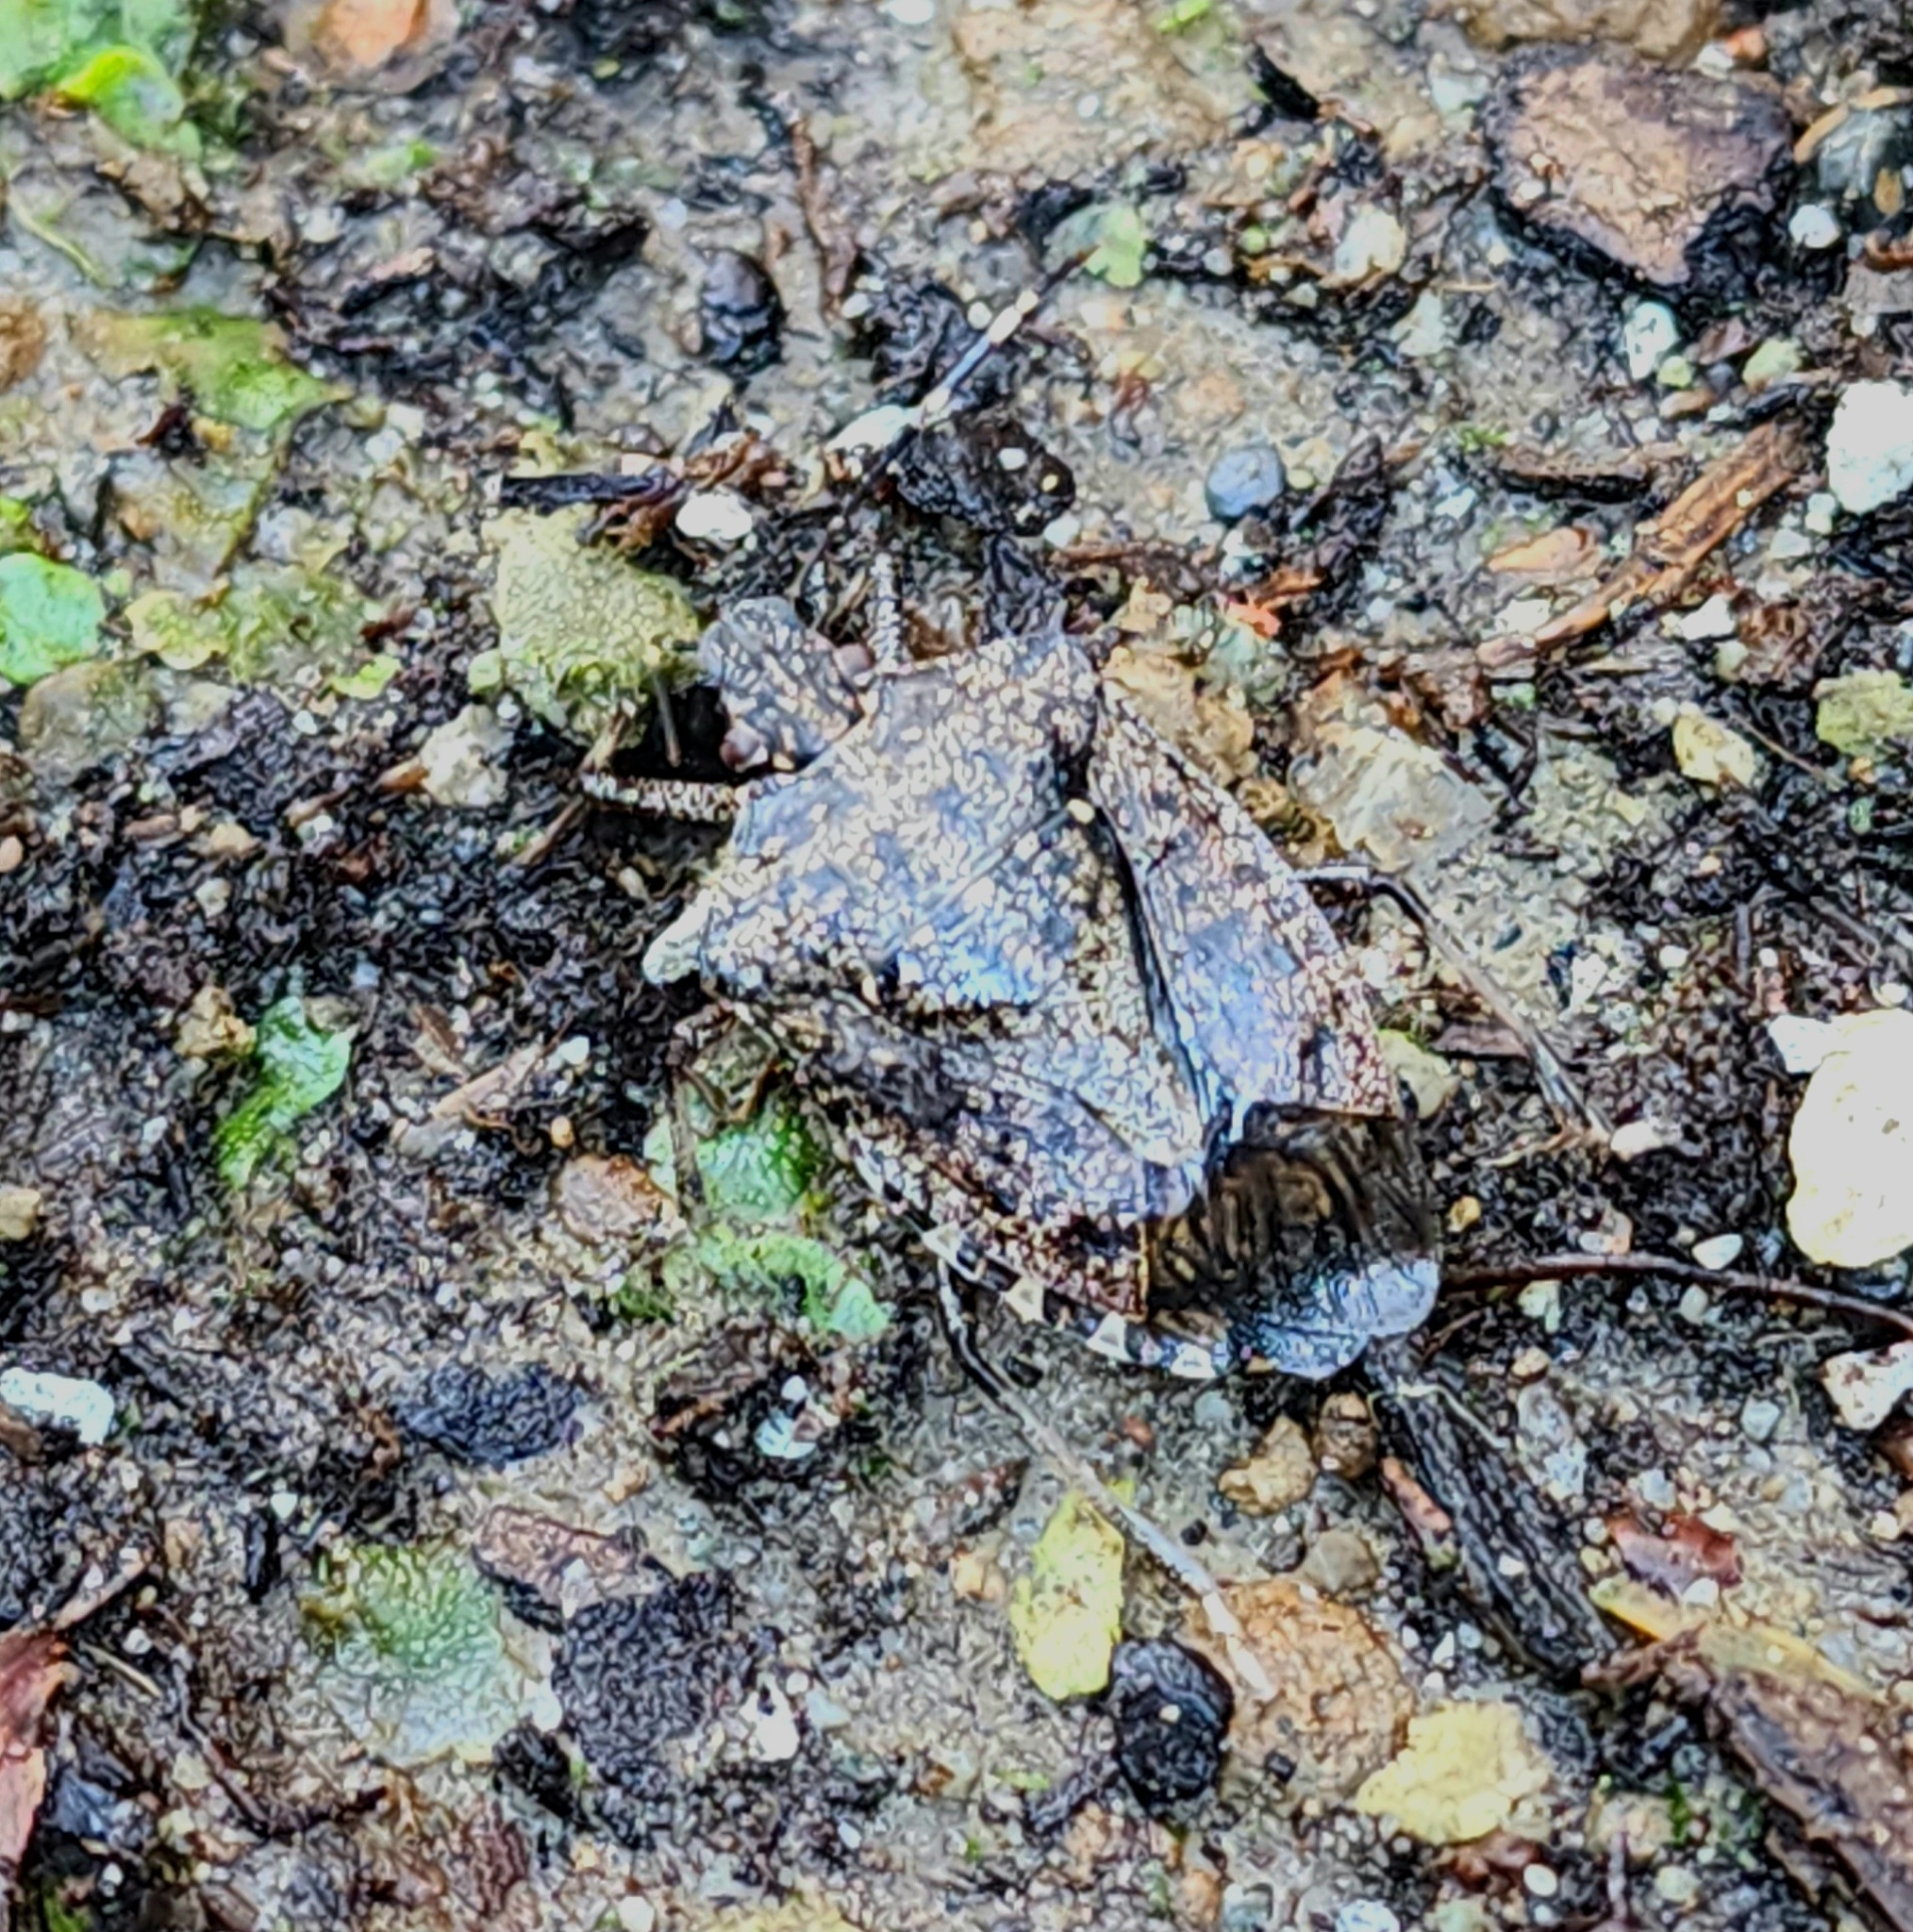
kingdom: Animalia
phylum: Arthropoda
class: Insecta
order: Hemiptera
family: Pentatomidae
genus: Halyomorpha
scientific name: Halyomorpha halys
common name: Brown marmorated stink bug
